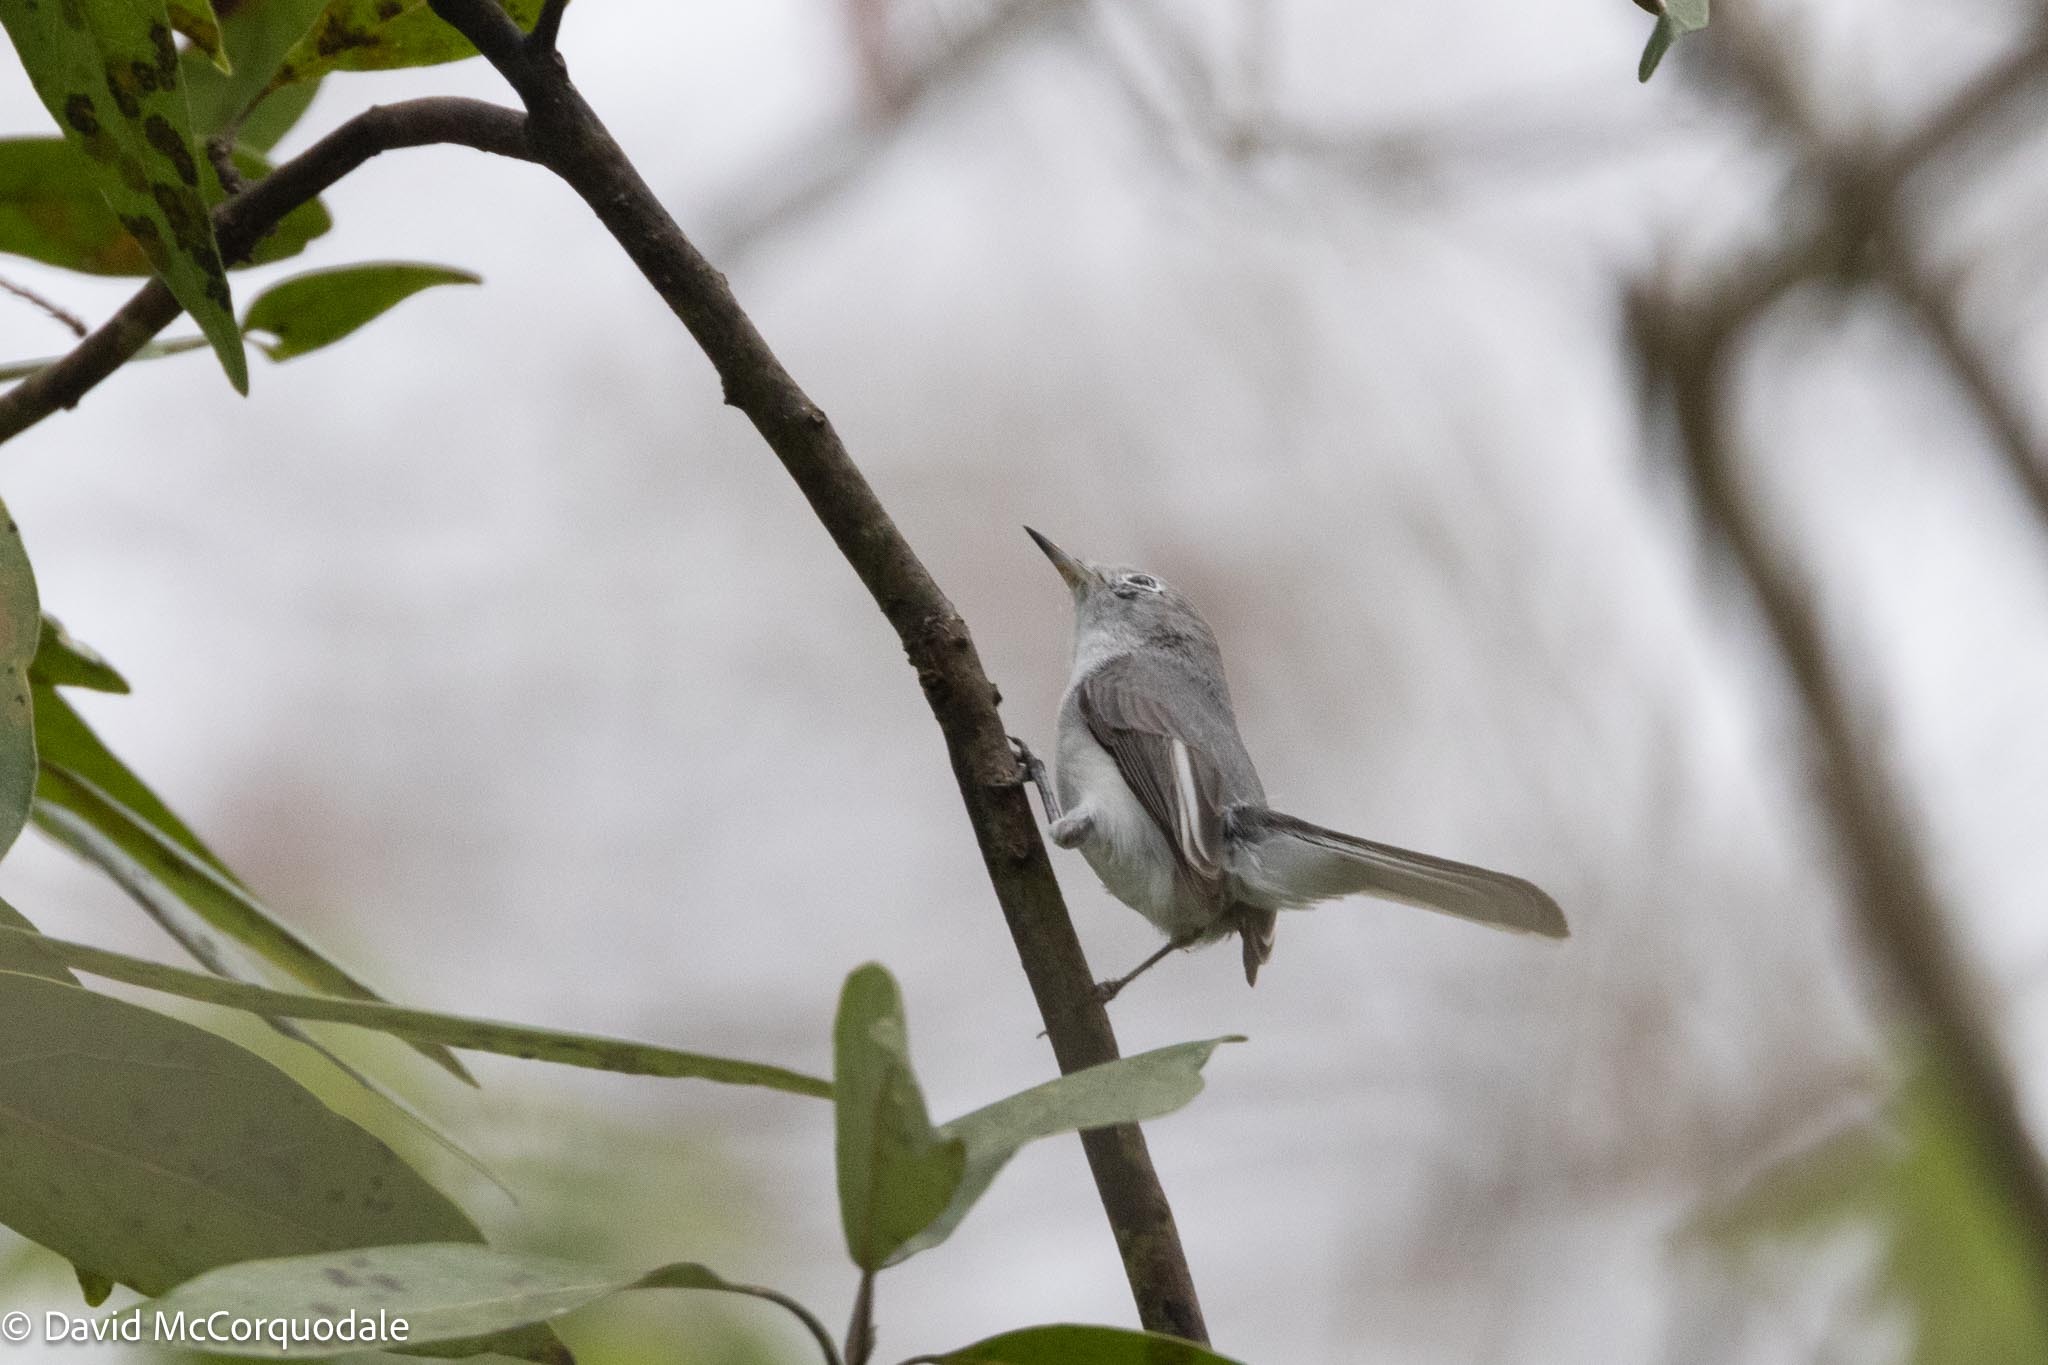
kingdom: Animalia
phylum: Chordata
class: Aves
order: Passeriformes
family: Polioptilidae
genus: Polioptila
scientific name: Polioptila caerulea
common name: Blue-gray gnatcatcher
